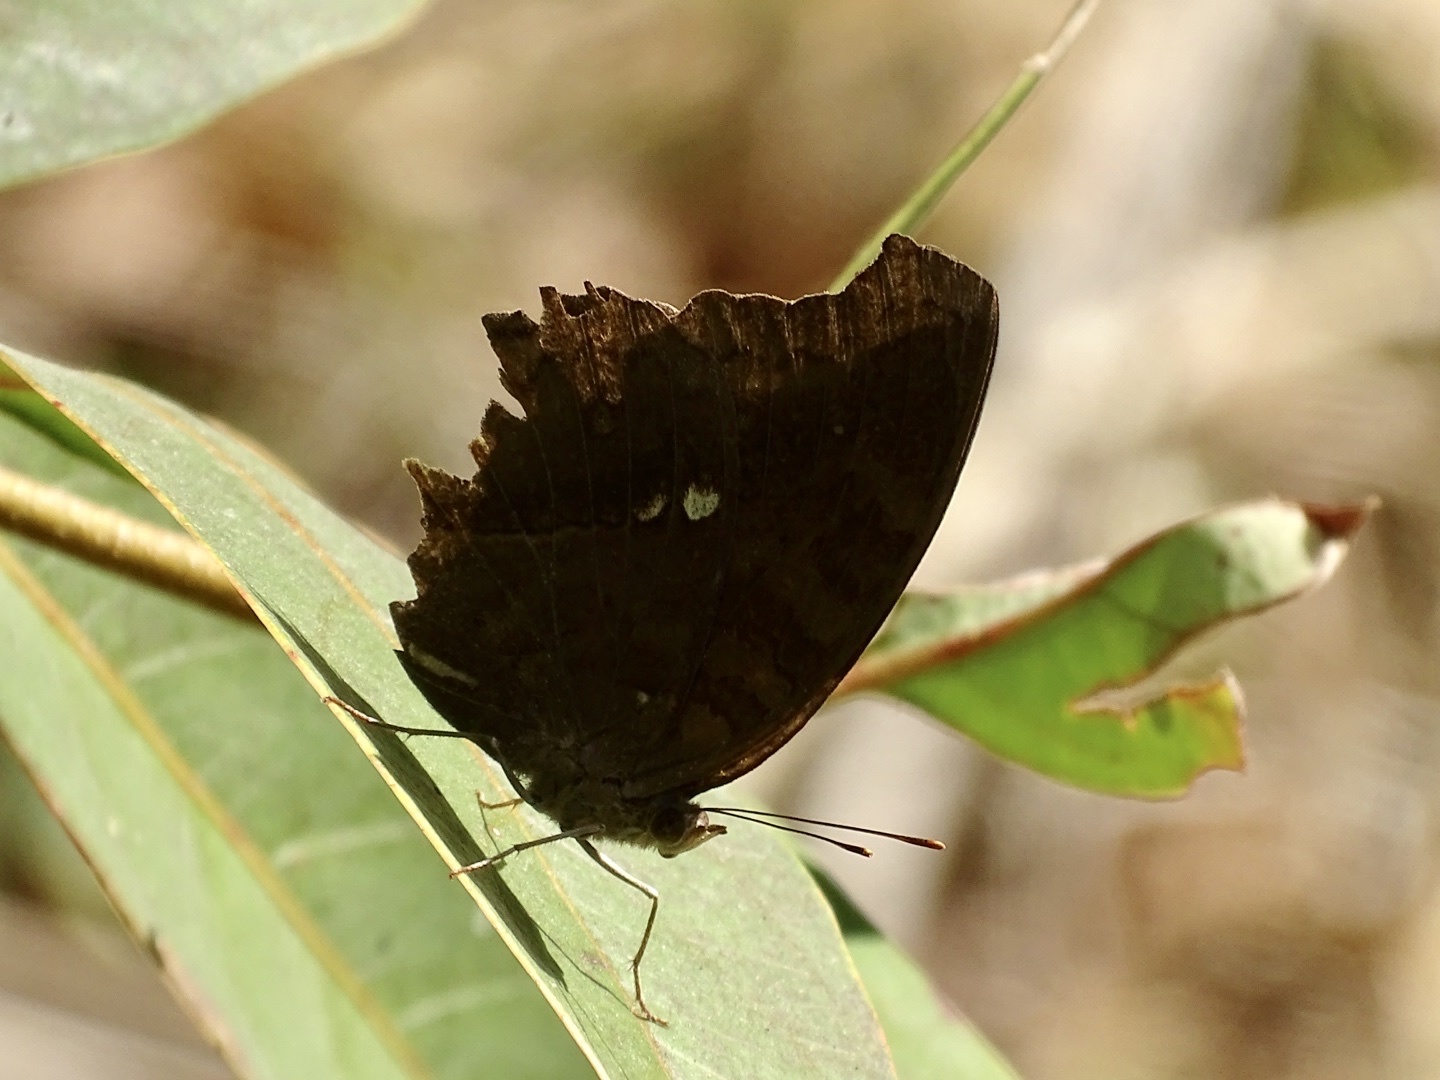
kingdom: Animalia
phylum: Arthropoda
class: Insecta
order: Lepidoptera
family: Nymphalidae
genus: Junonia
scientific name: Junonia iphita
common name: Chocolate pansy
